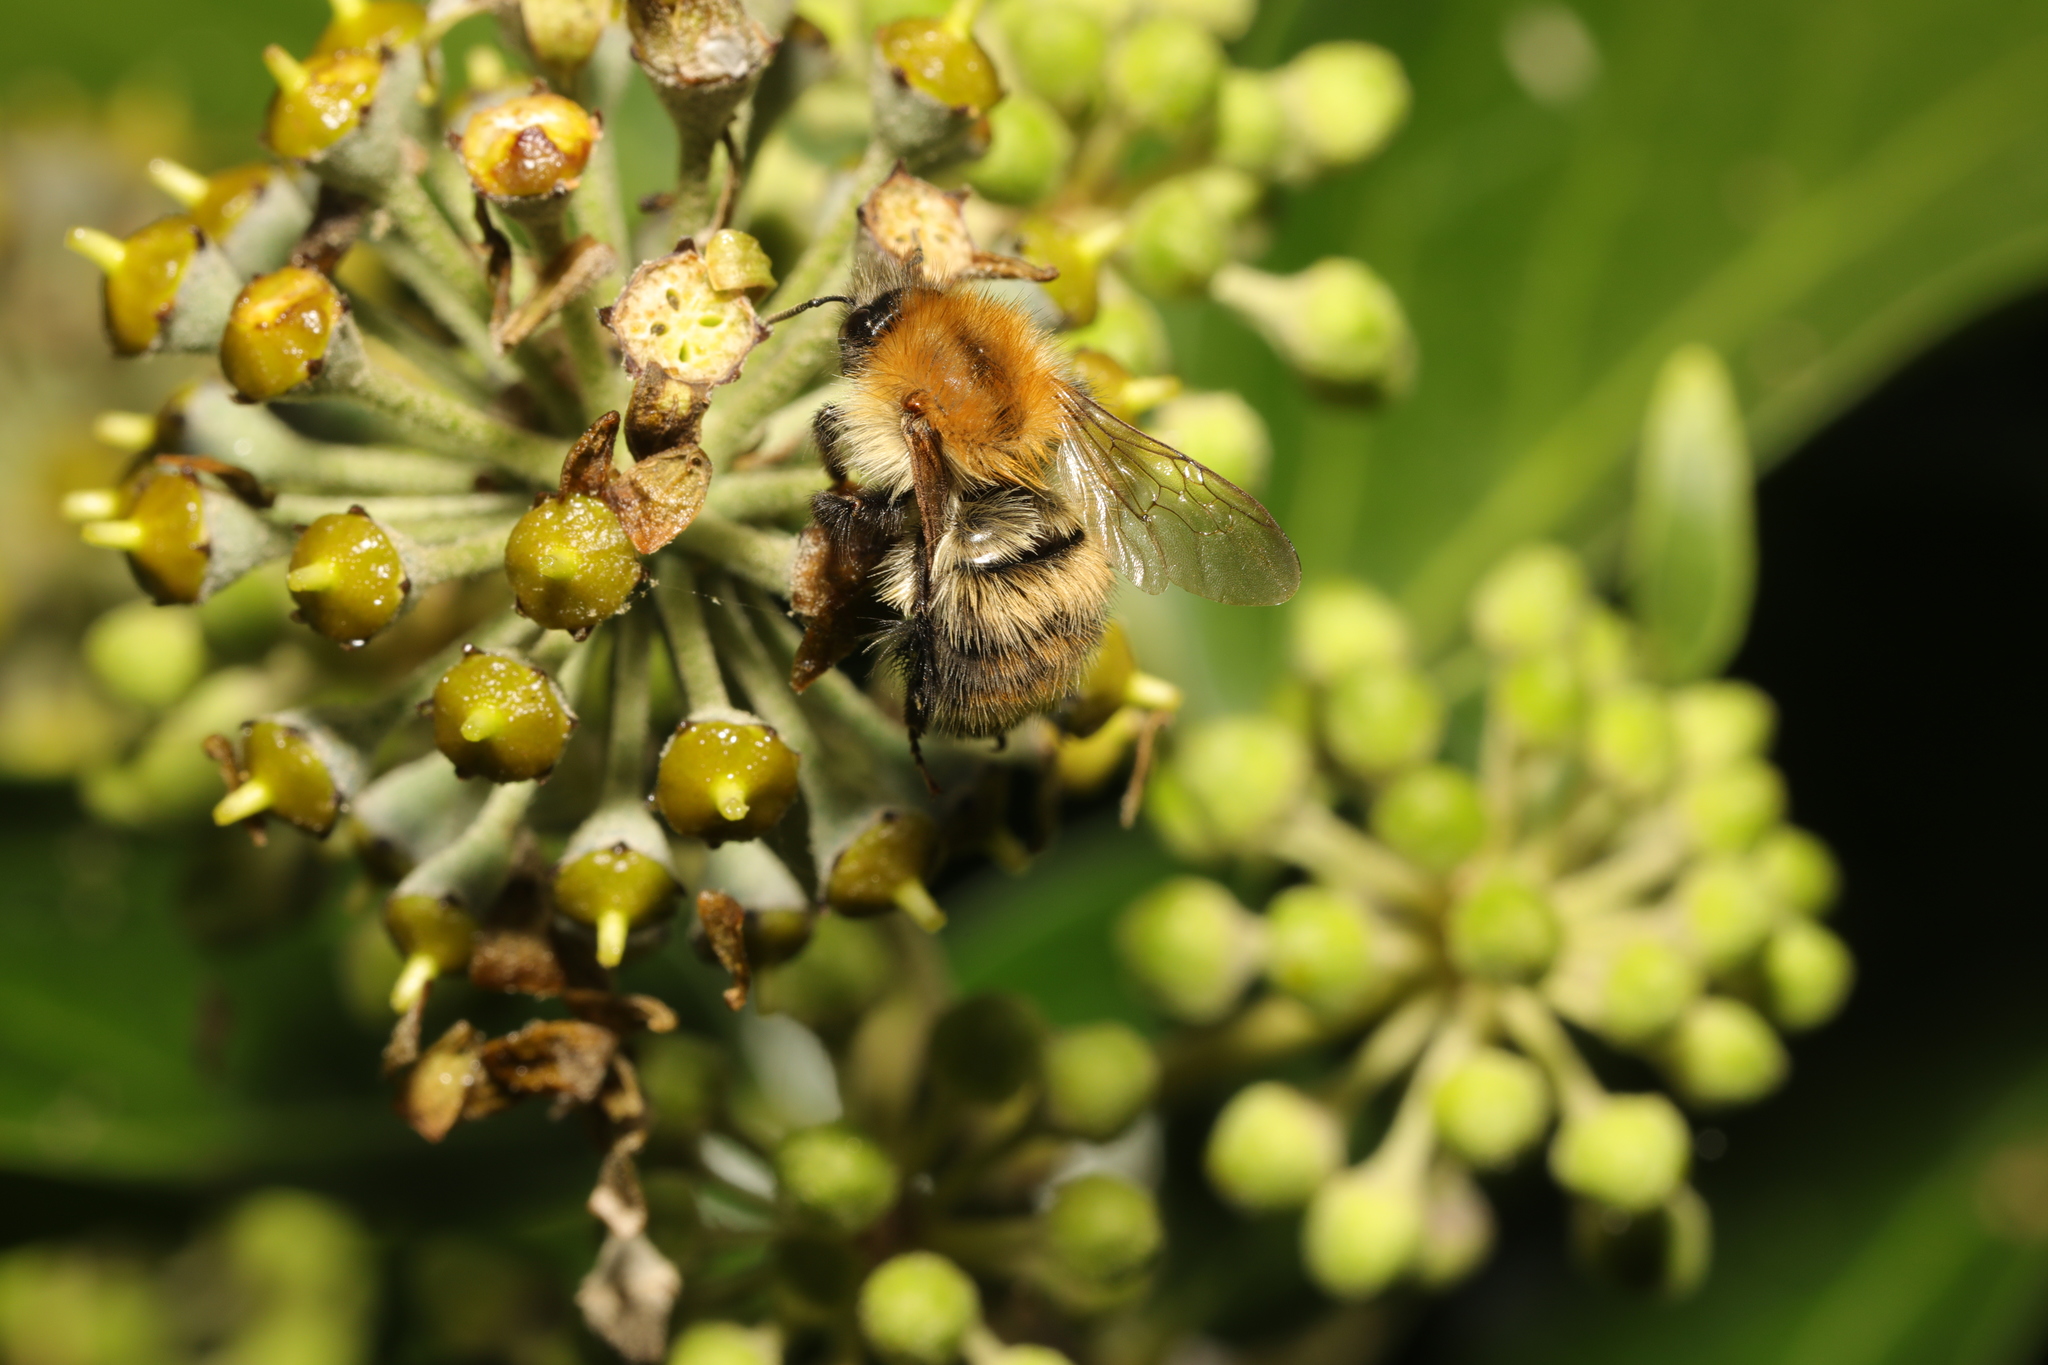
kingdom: Animalia
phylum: Arthropoda
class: Insecta
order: Hymenoptera
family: Apidae
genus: Bombus
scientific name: Bombus pascuorum
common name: Common carder bee
